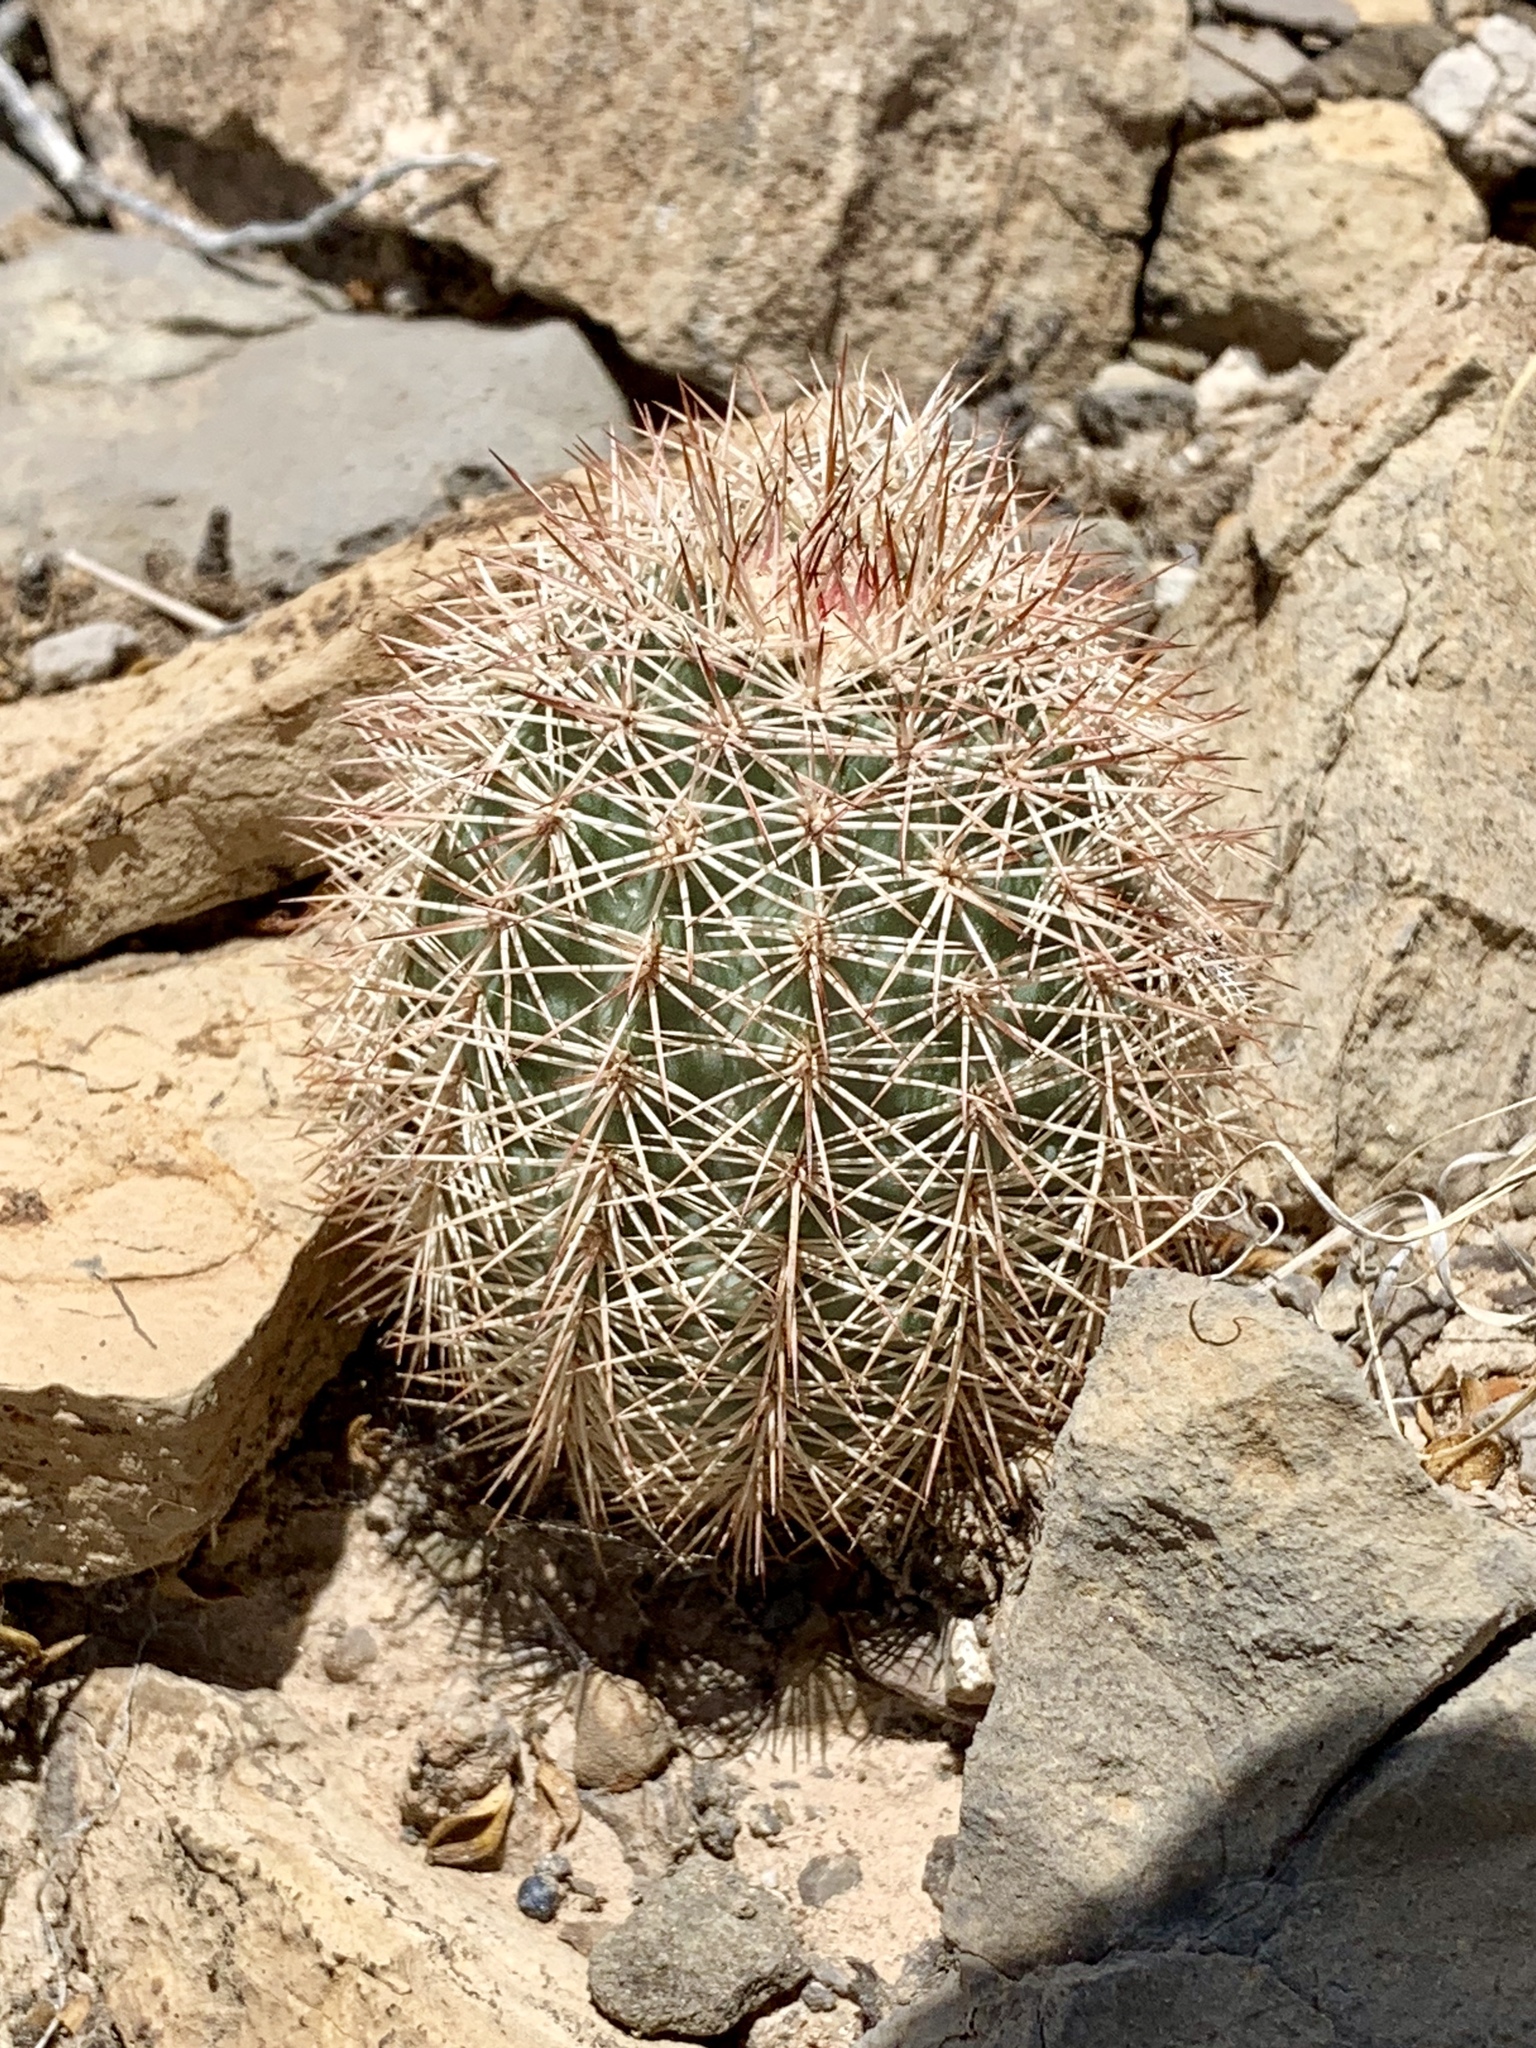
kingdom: Plantae
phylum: Tracheophyta
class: Magnoliopsida
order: Caryophyllales
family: Cactaceae
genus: Echinocereus
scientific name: Echinocereus roetteri
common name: Lloyd's hedgehog cactus
